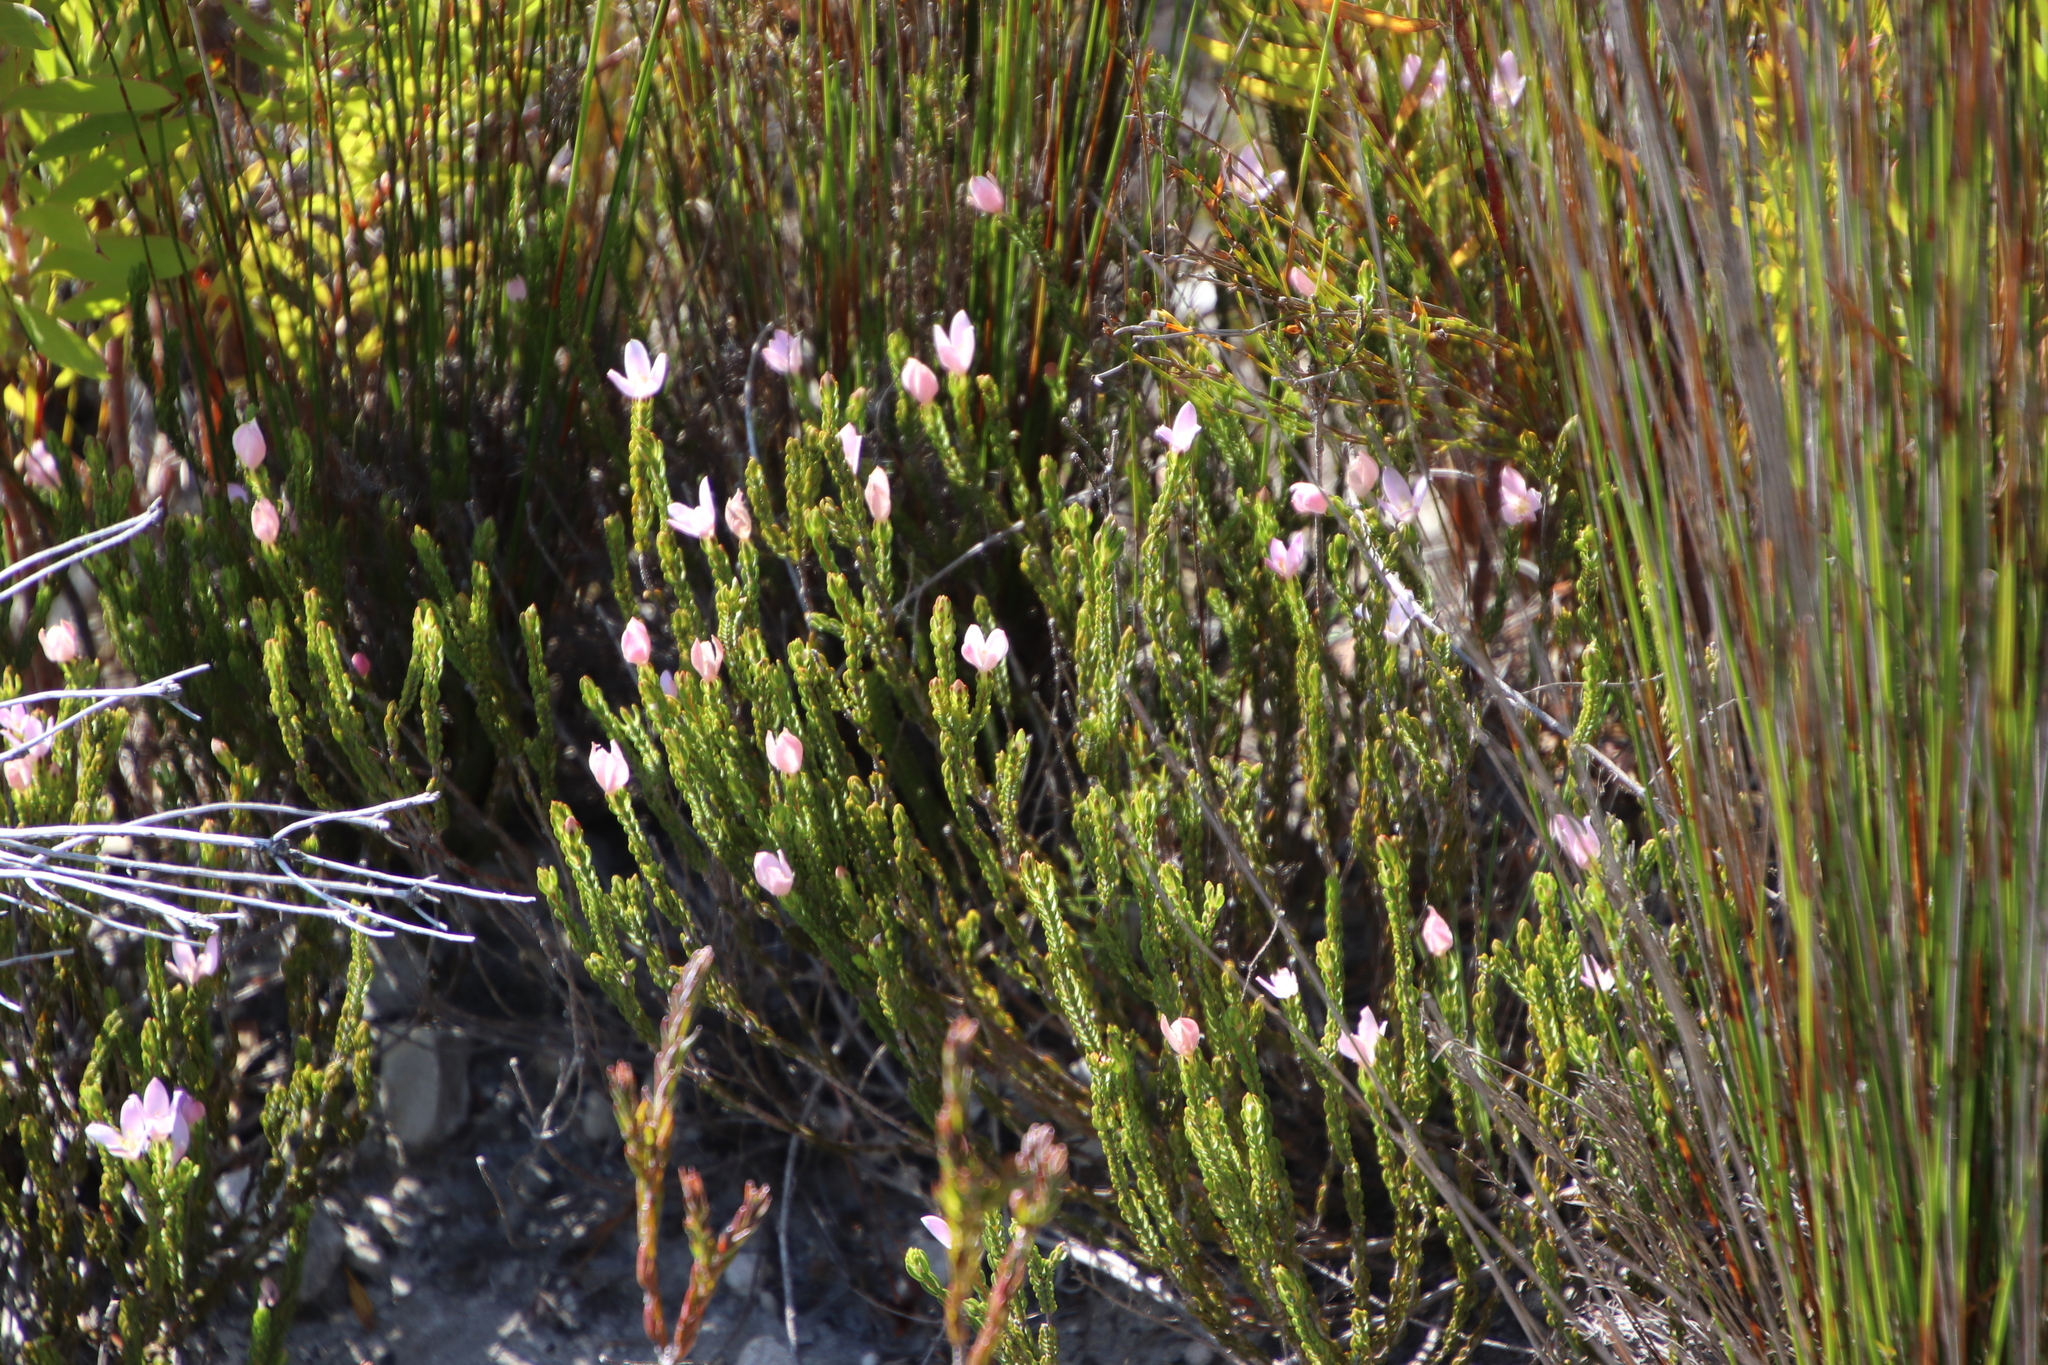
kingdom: Plantae
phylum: Tracheophyta
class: Magnoliopsida
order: Malvales
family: Thymelaeaceae
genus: Lachnaea
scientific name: Lachnaea grandiflora
